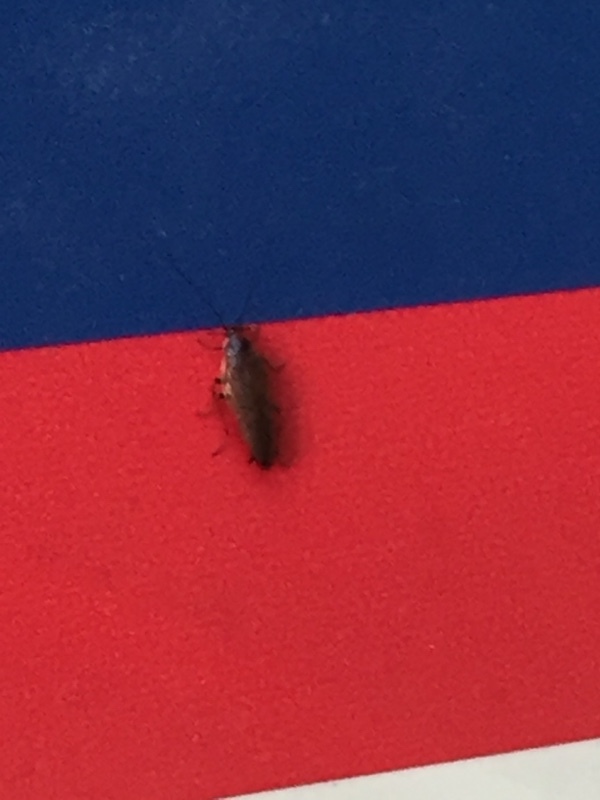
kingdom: Animalia
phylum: Arthropoda
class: Insecta
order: Blattodea
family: Ectobiidae
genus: Ectobius
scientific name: Ectobius lapponicus
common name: Dusky cockroach
